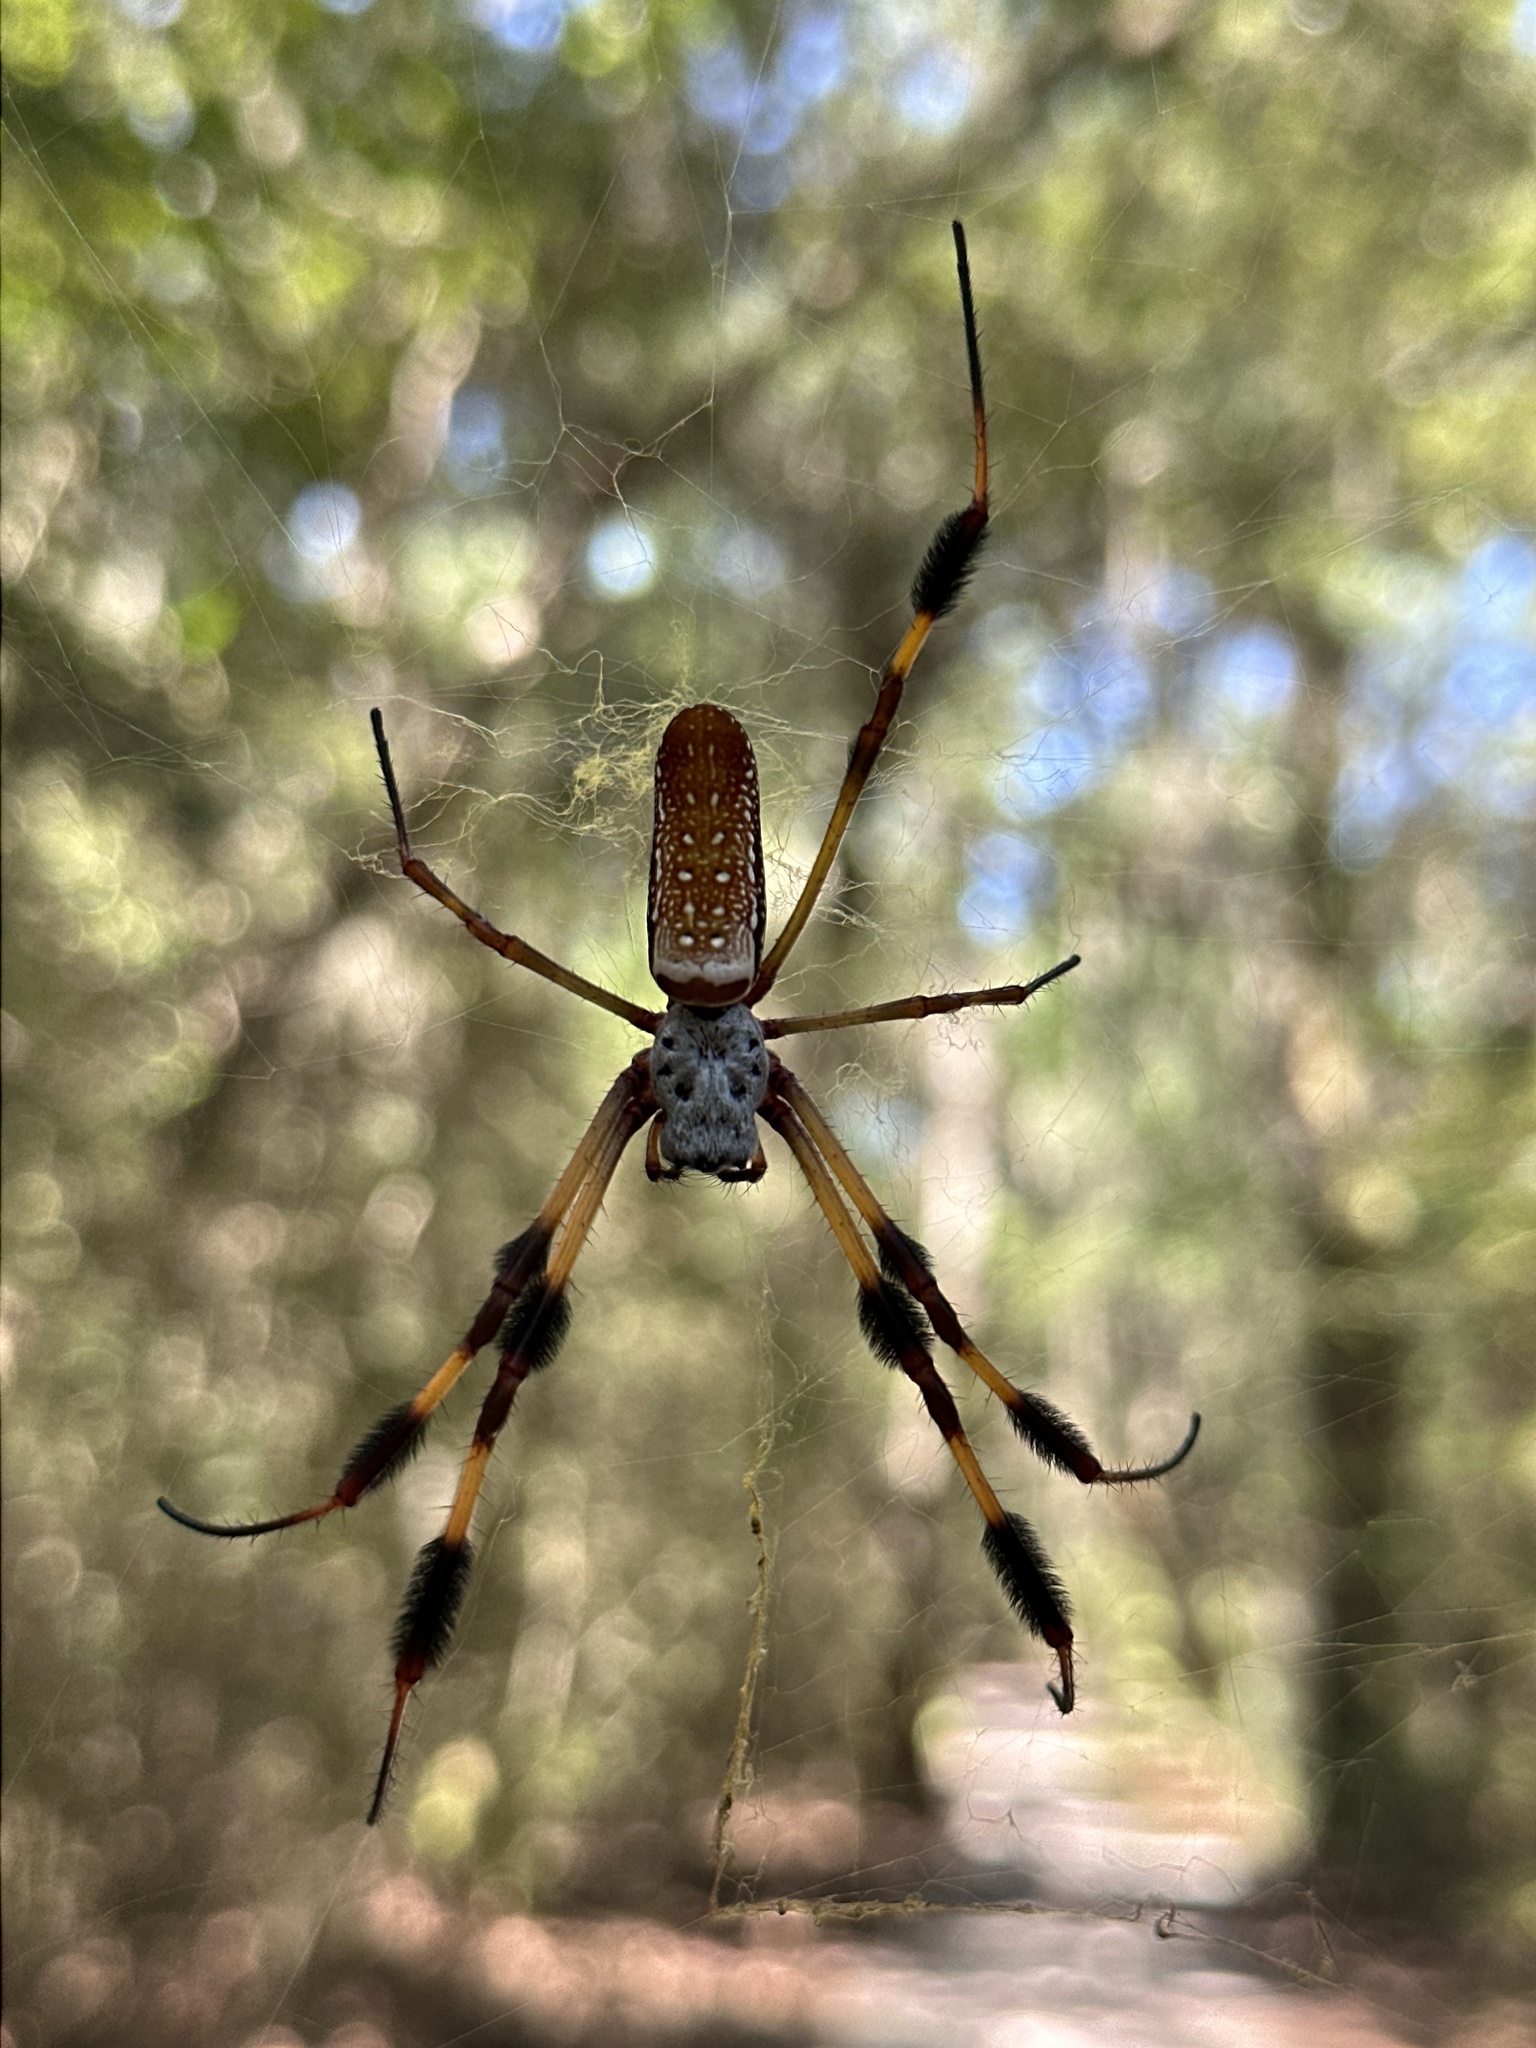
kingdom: Animalia
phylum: Arthropoda
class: Arachnida
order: Araneae
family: Araneidae
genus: Trichonephila
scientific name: Trichonephila clavipes
